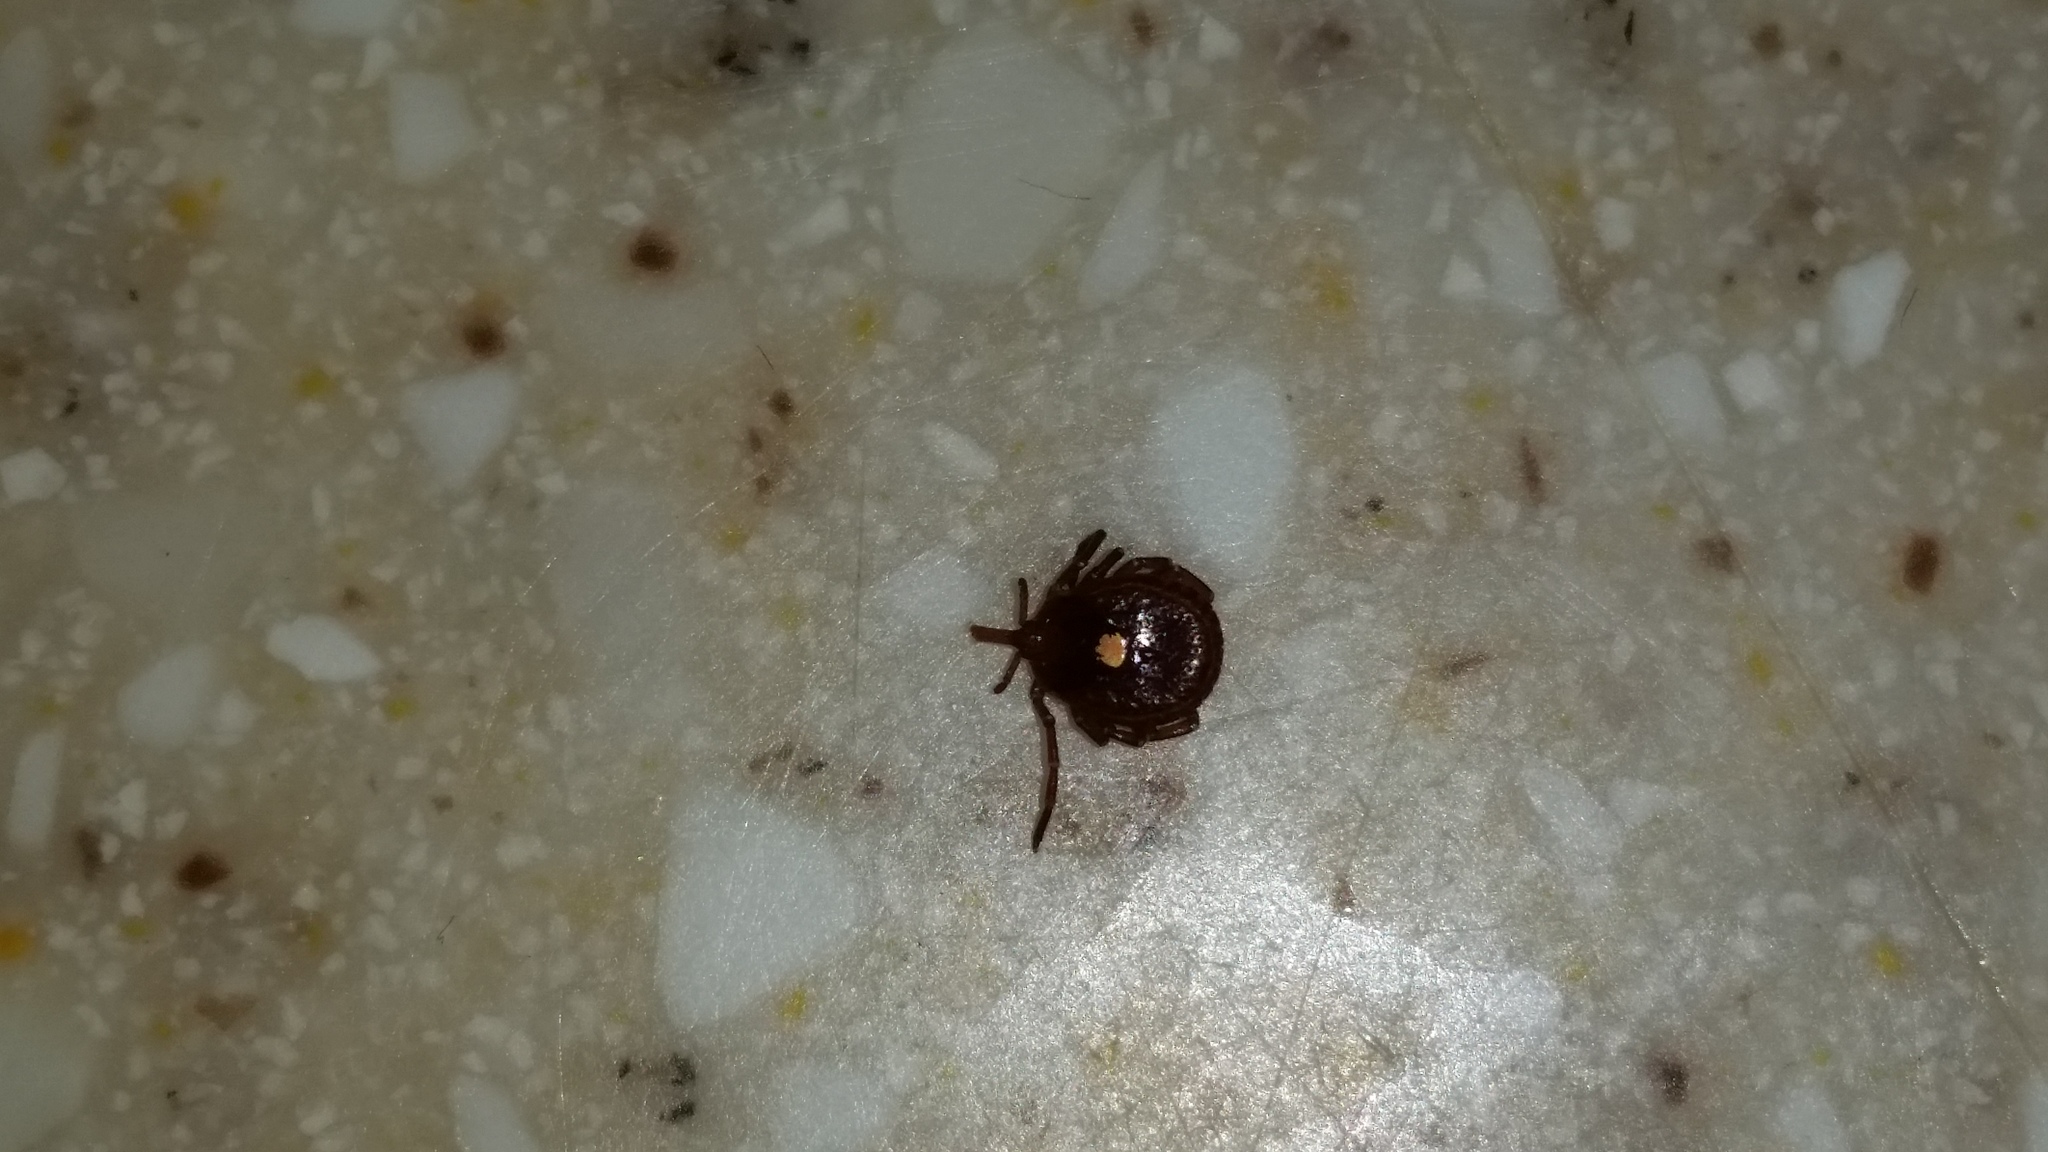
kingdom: Animalia
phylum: Arthropoda
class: Arachnida
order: Ixodida
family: Ixodidae
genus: Amblyomma
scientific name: Amblyomma americanum
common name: Lone star tick
